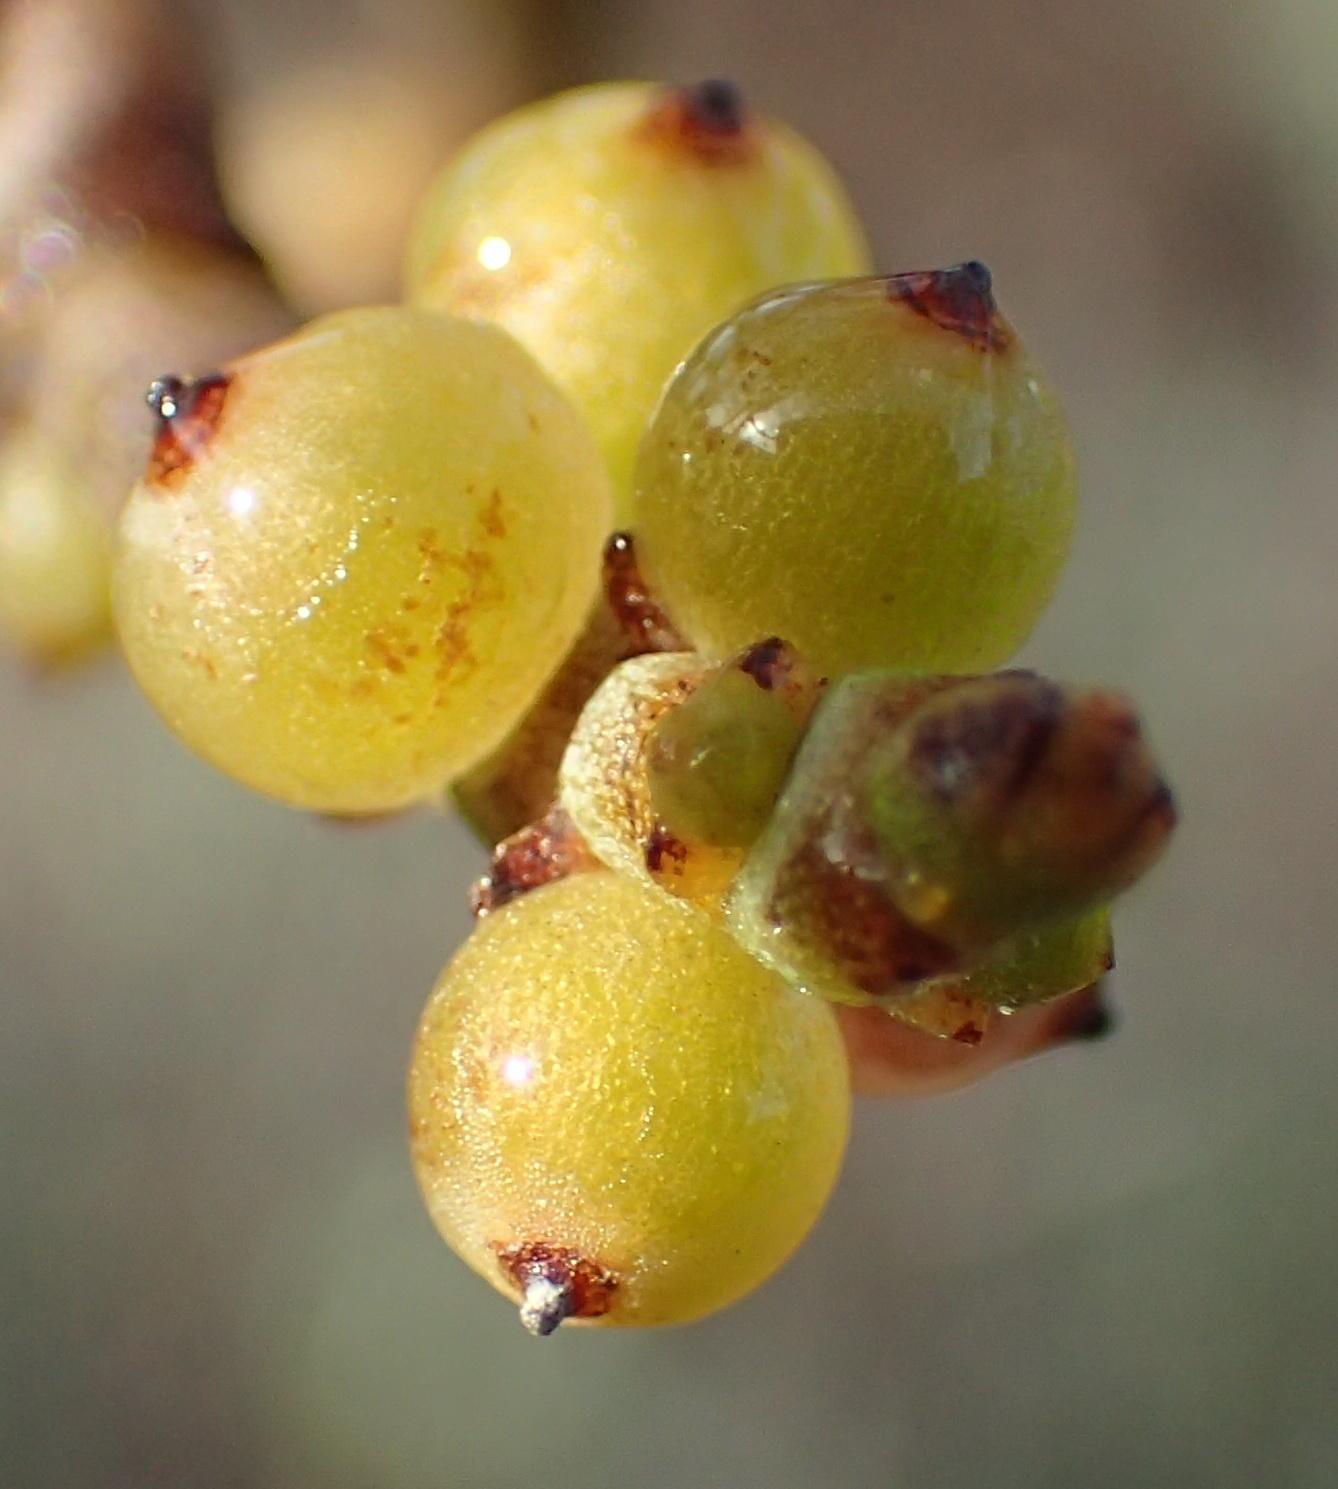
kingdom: Plantae
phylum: Tracheophyta
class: Magnoliopsida
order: Santalales
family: Viscaceae
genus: Viscum
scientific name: Viscum capense
